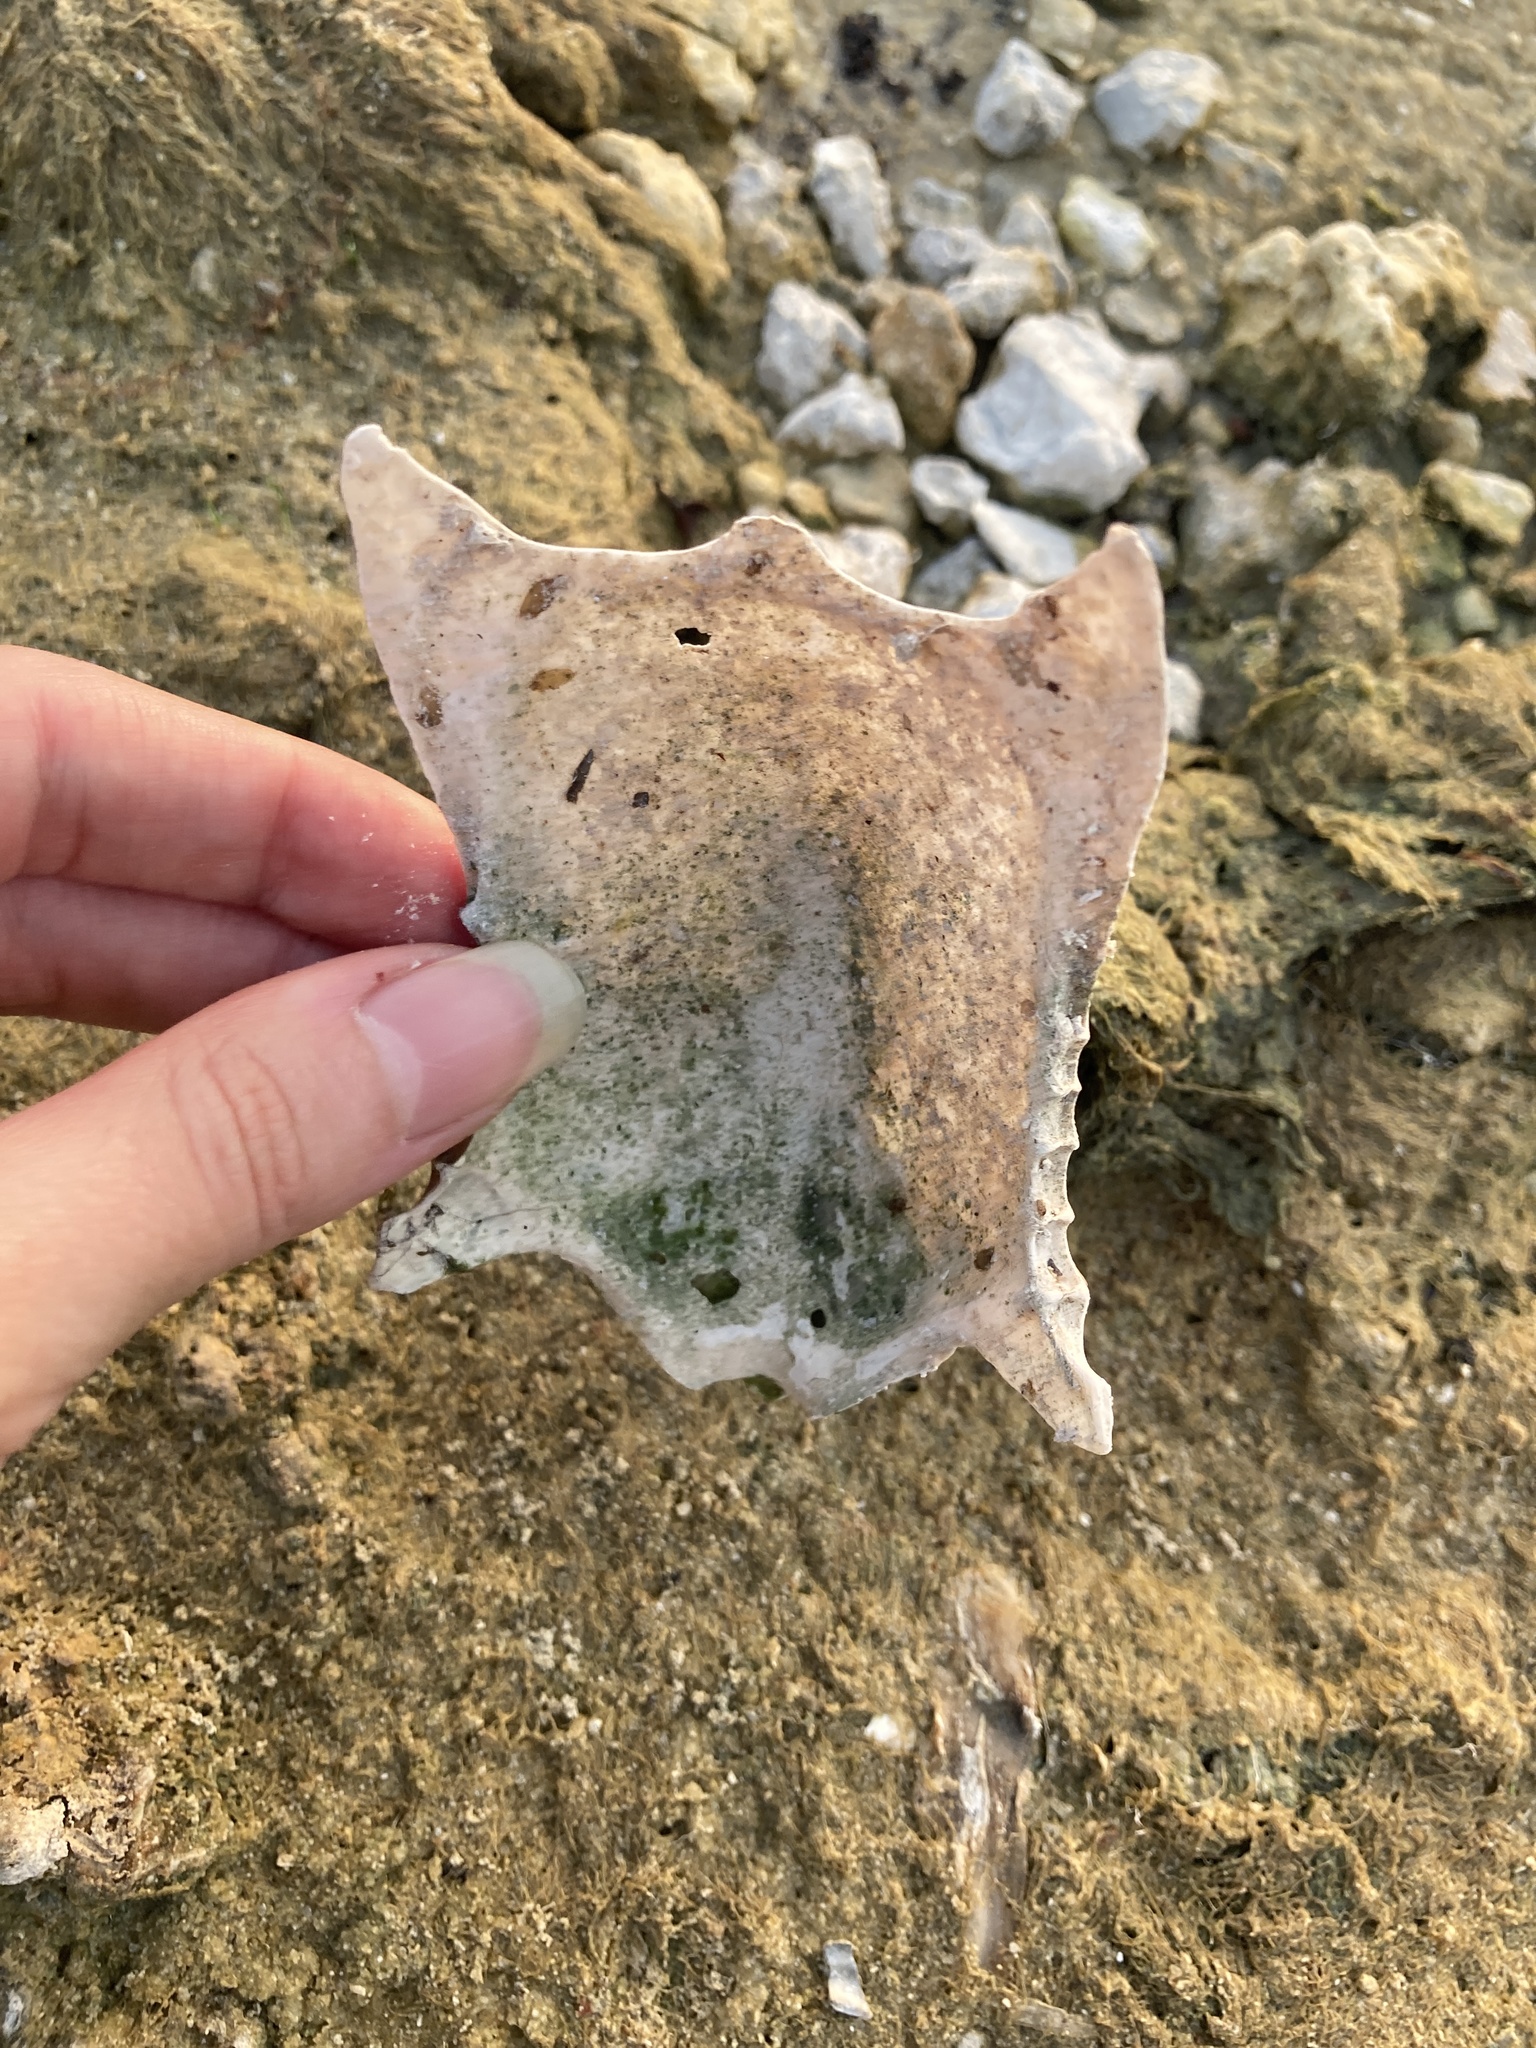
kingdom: Animalia
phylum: Chordata
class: Aves
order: Suliformes
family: Phalacrocoracidae
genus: Phalacrocorax
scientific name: Phalacrocorax auritus
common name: Double-crested cormorant
